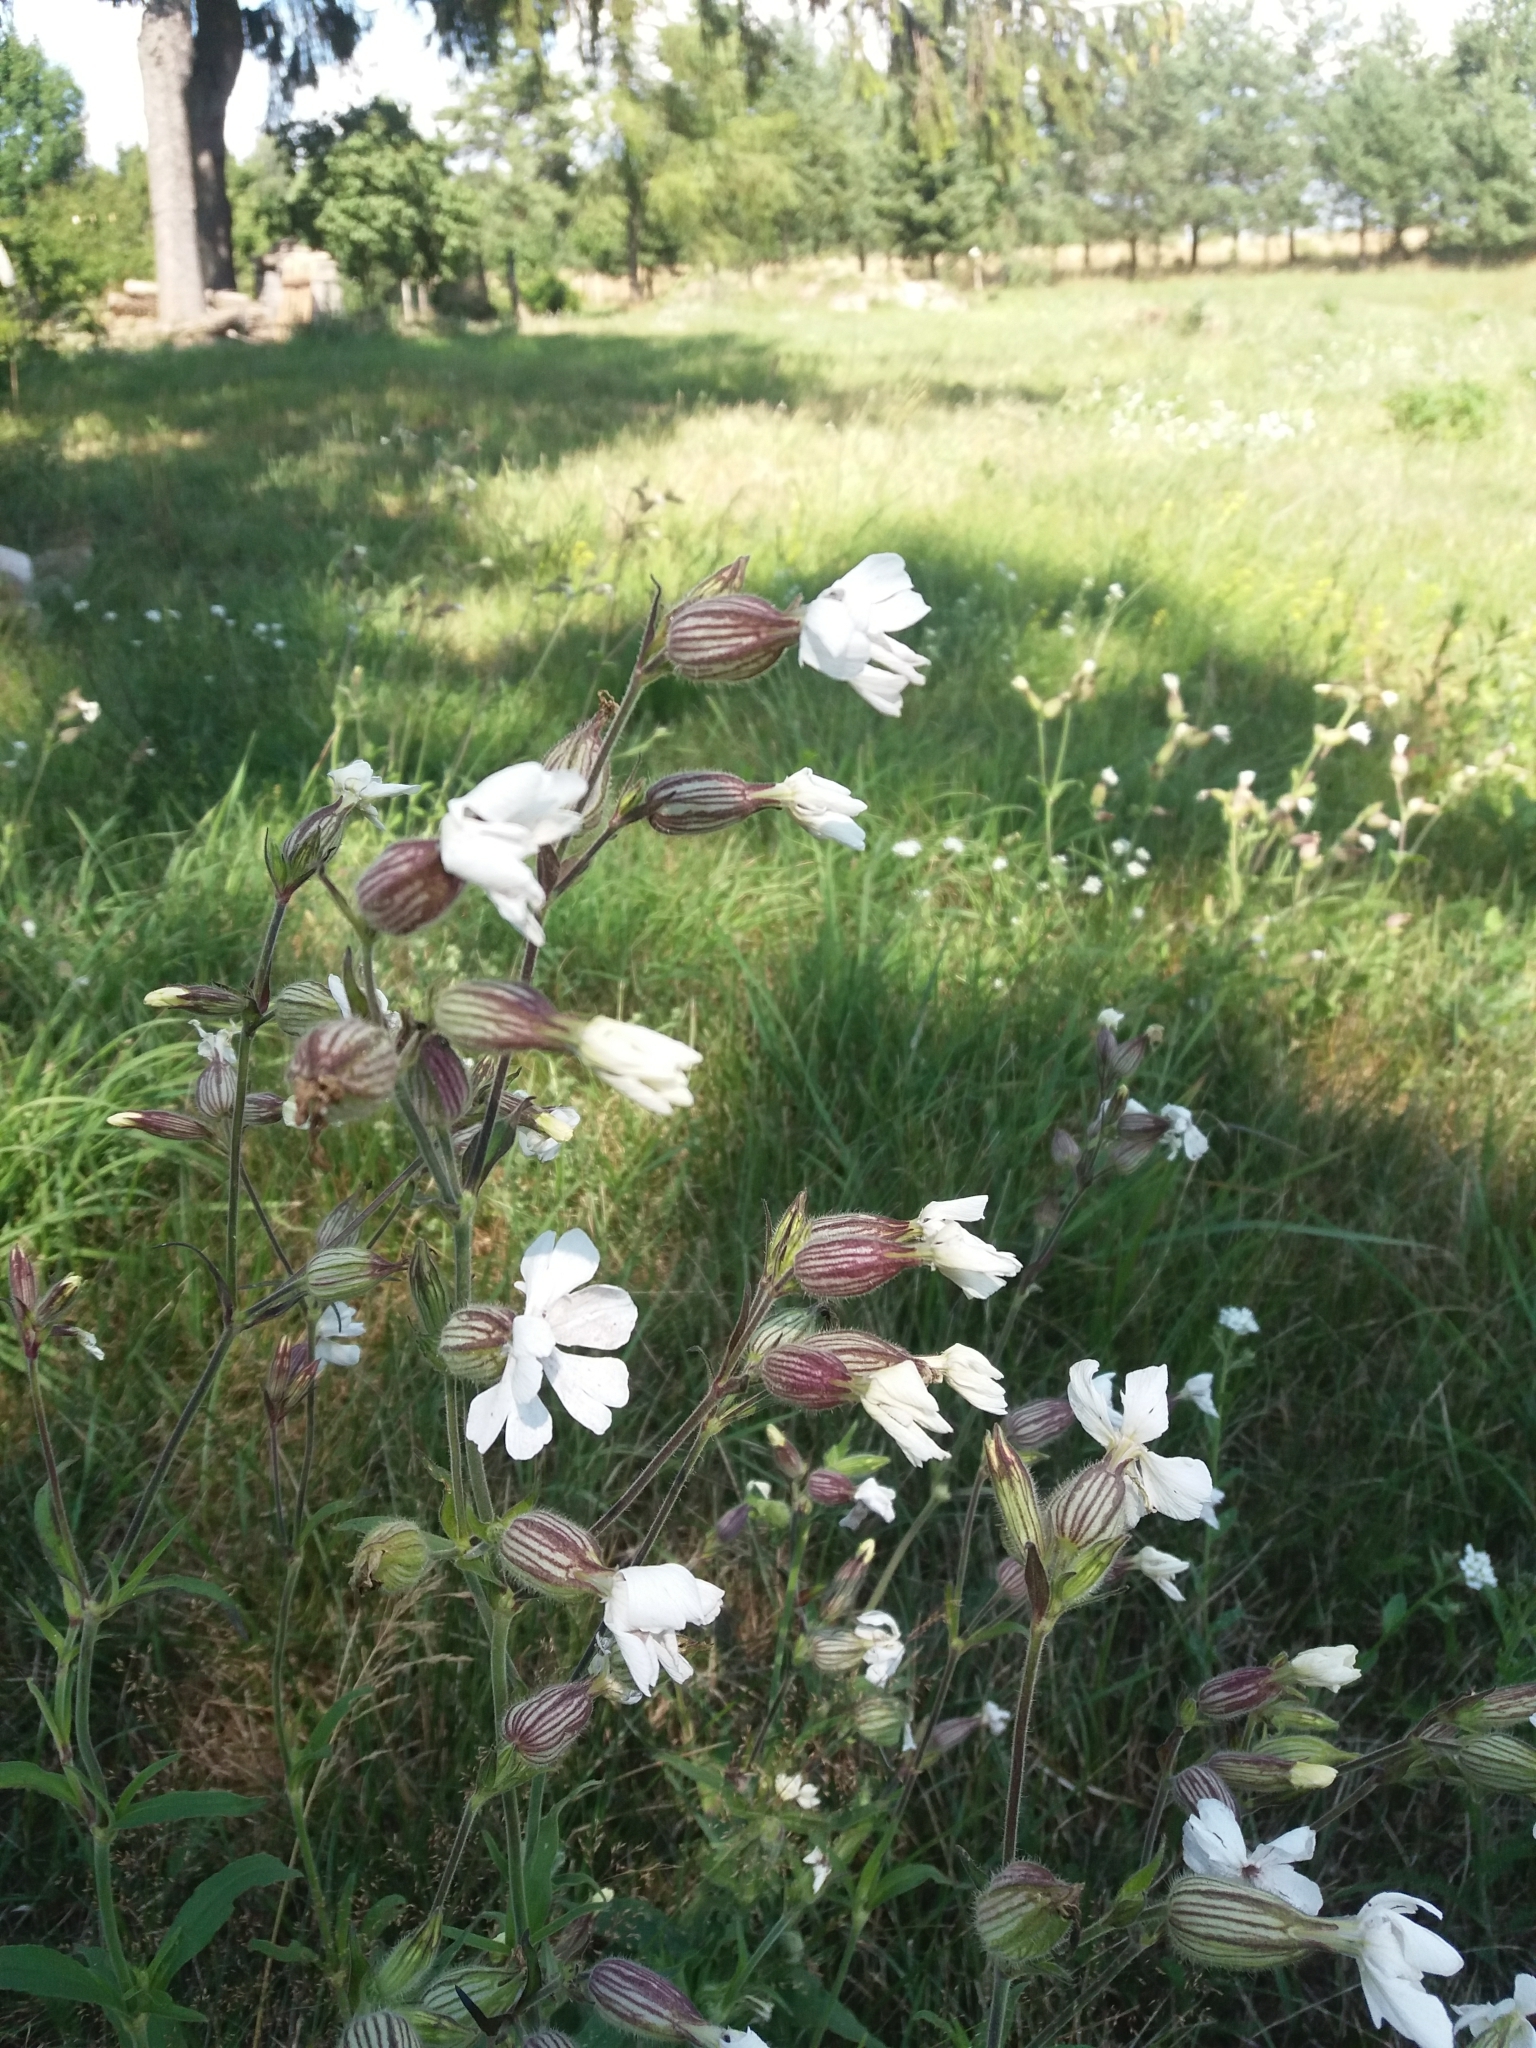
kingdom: Plantae
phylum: Tracheophyta
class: Magnoliopsida
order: Caryophyllales
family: Caryophyllaceae
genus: Silene
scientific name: Silene latifolia
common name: White campion
